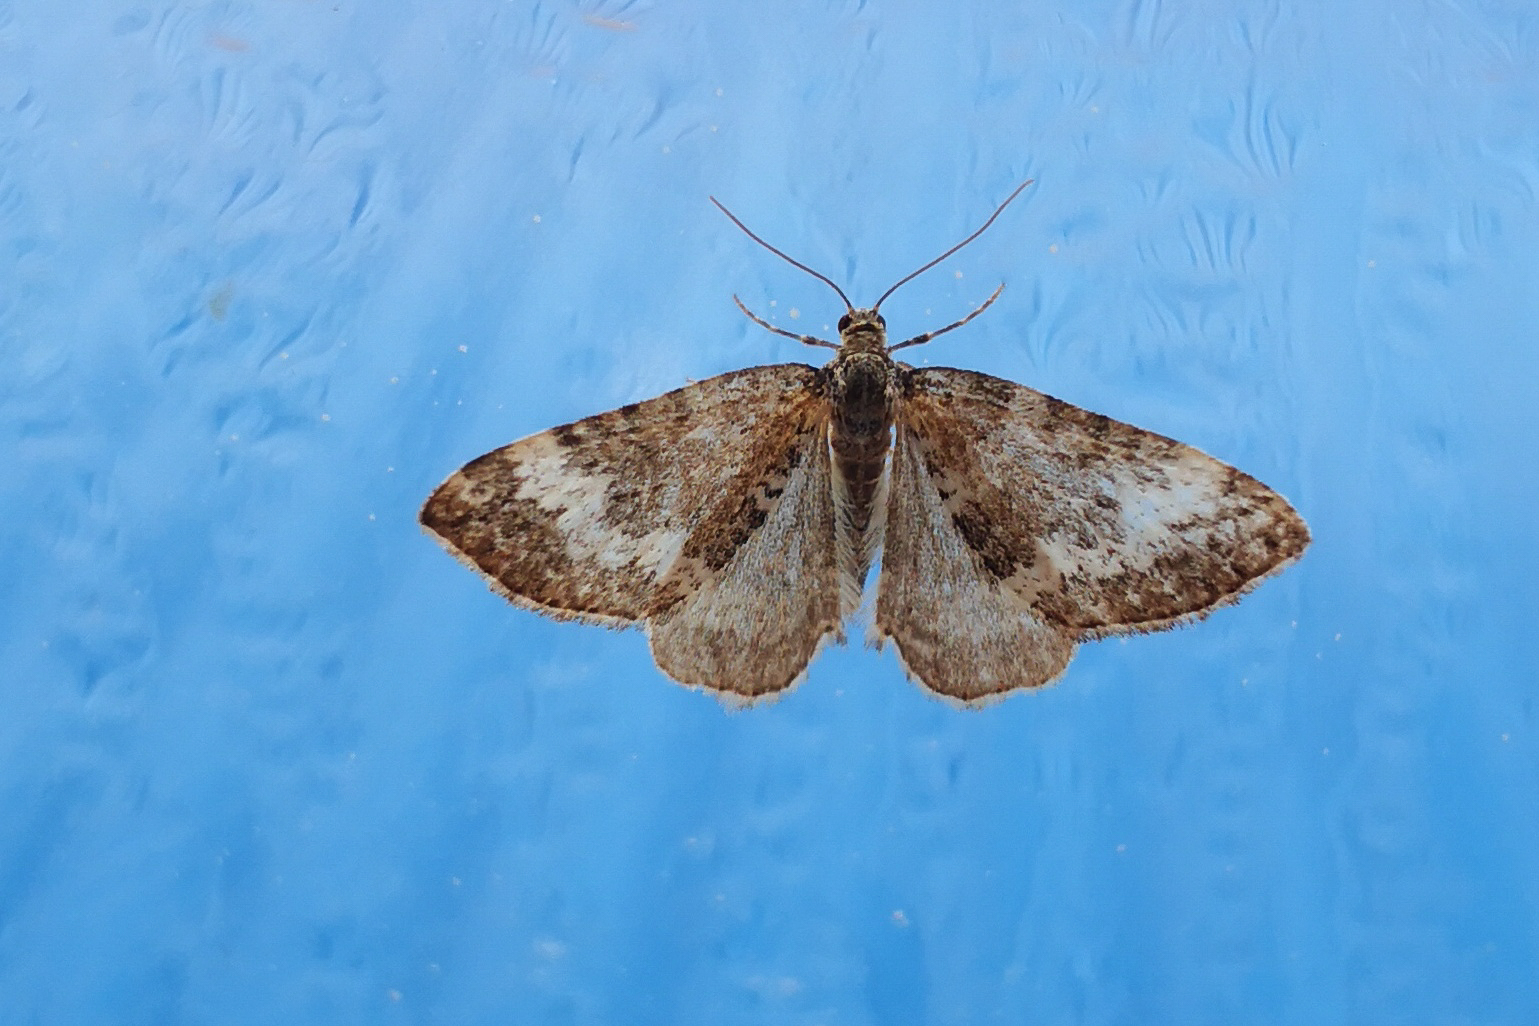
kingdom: Animalia
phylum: Arthropoda
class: Insecta
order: Lepidoptera
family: Geometridae
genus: Perizoma
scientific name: Perizoma alchemillata
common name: Small rivulet
